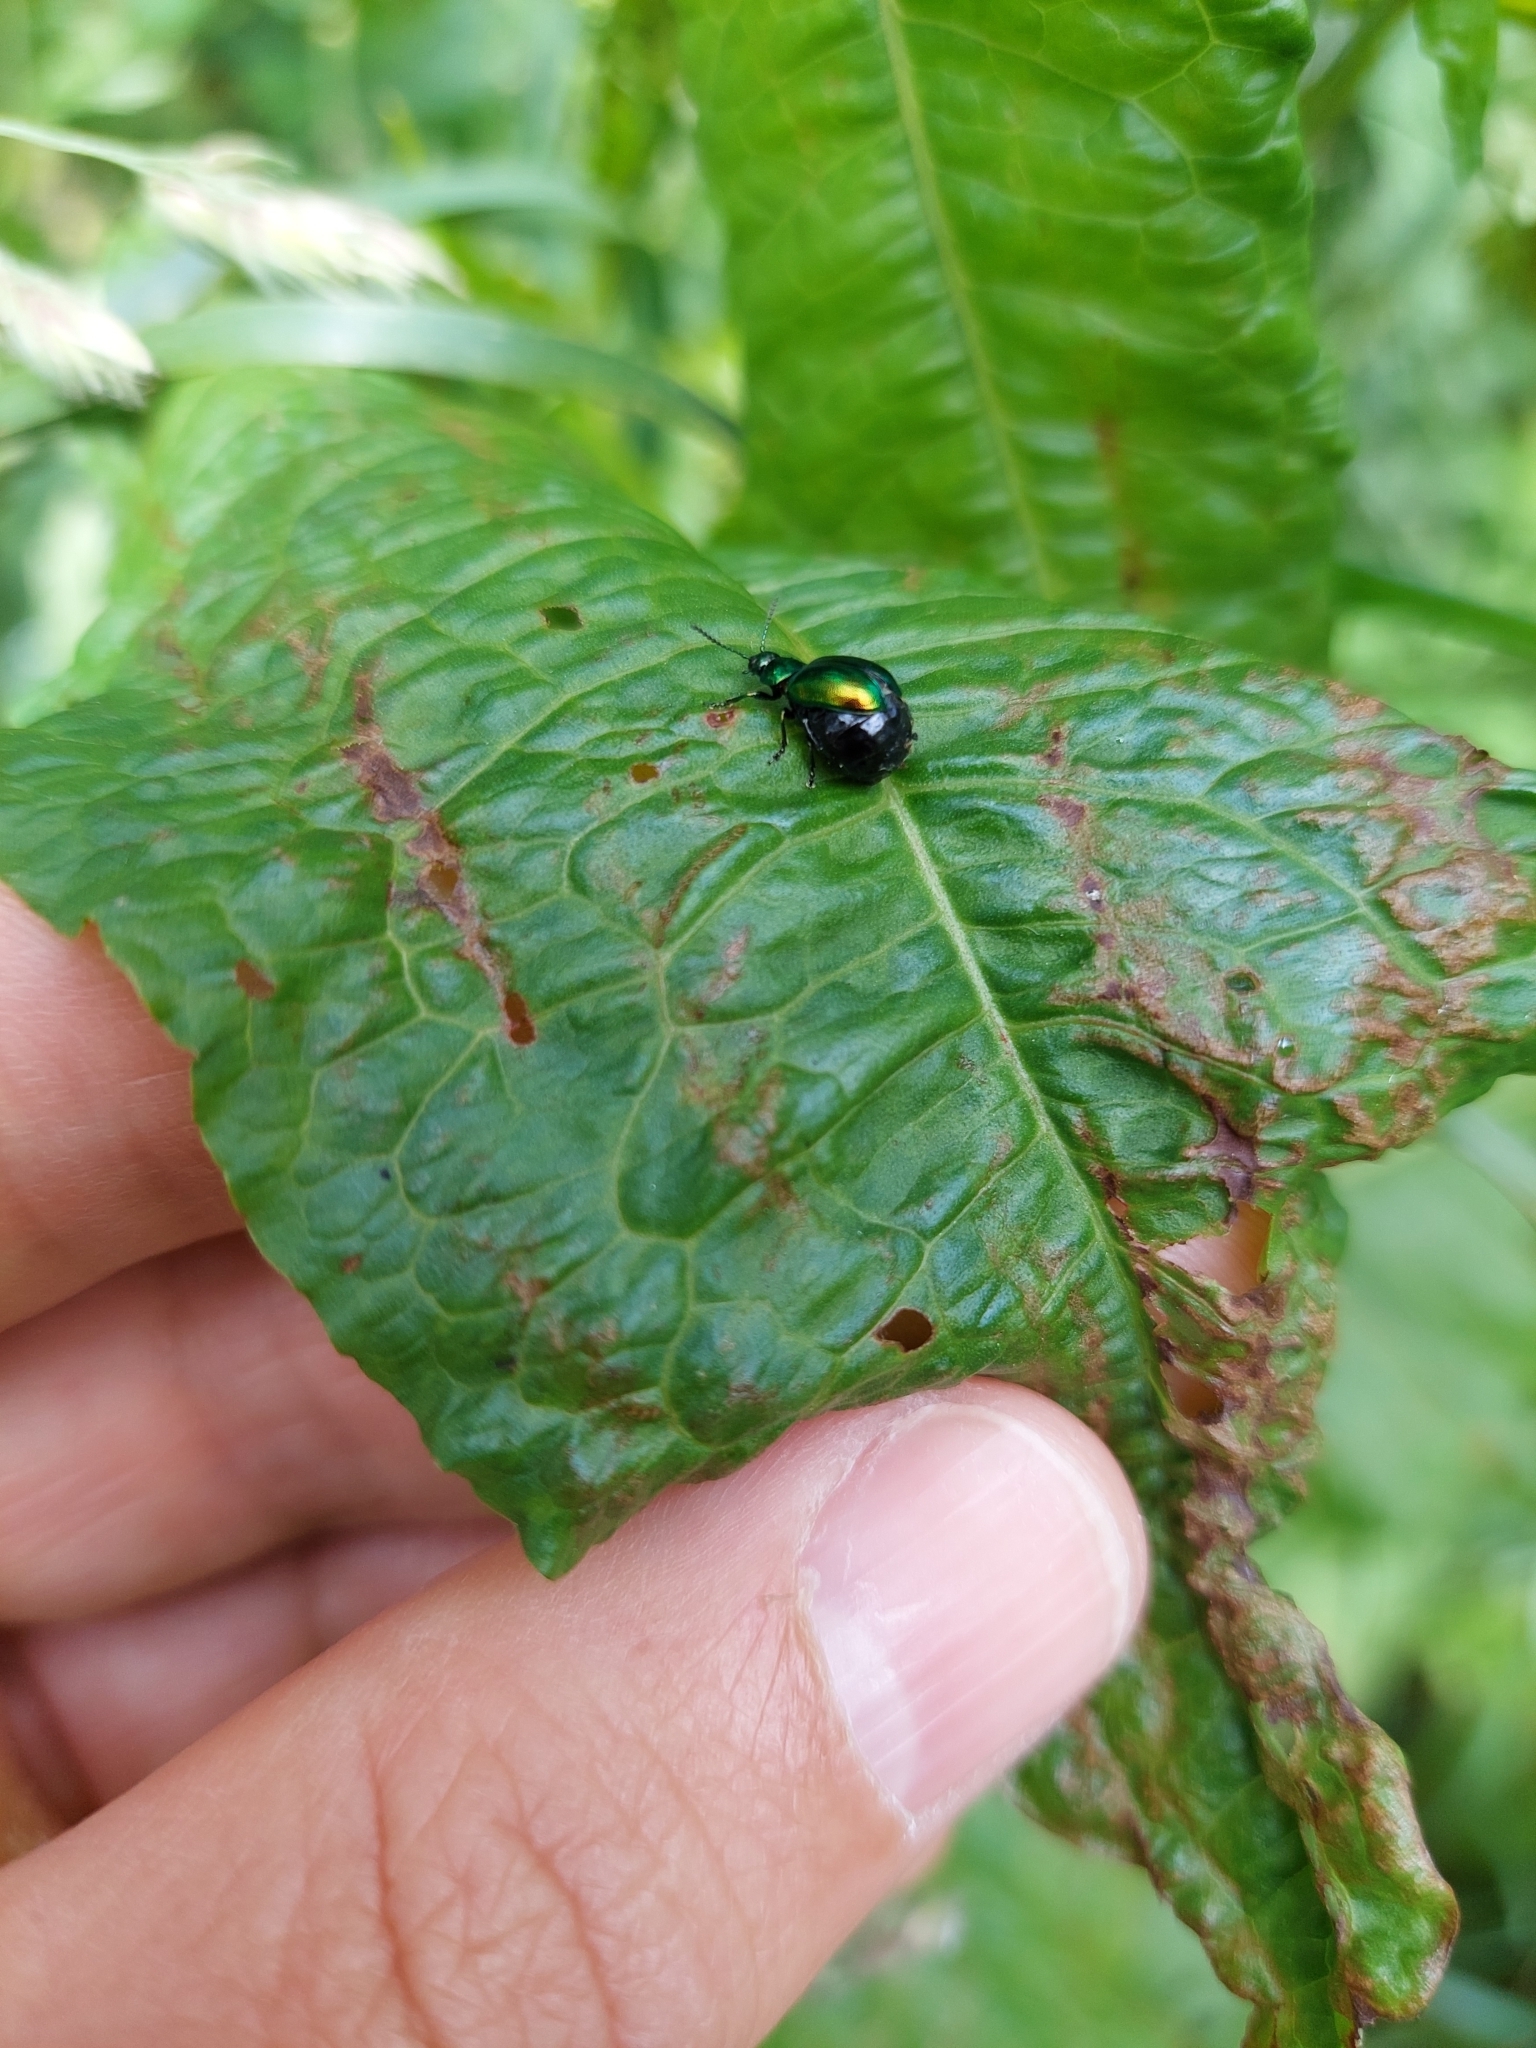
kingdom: Animalia
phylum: Arthropoda
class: Insecta
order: Coleoptera
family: Chrysomelidae
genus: Gastrophysa
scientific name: Gastrophysa viridula
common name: Green dock beetle
